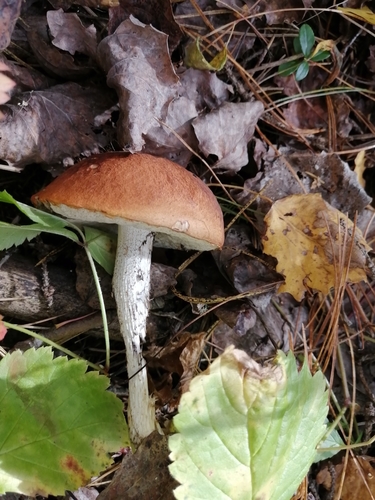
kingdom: Fungi
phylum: Basidiomycota
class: Agaricomycetes
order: Boletales
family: Boletaceae
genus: Leccinum
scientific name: Leccinum albostipitatum
